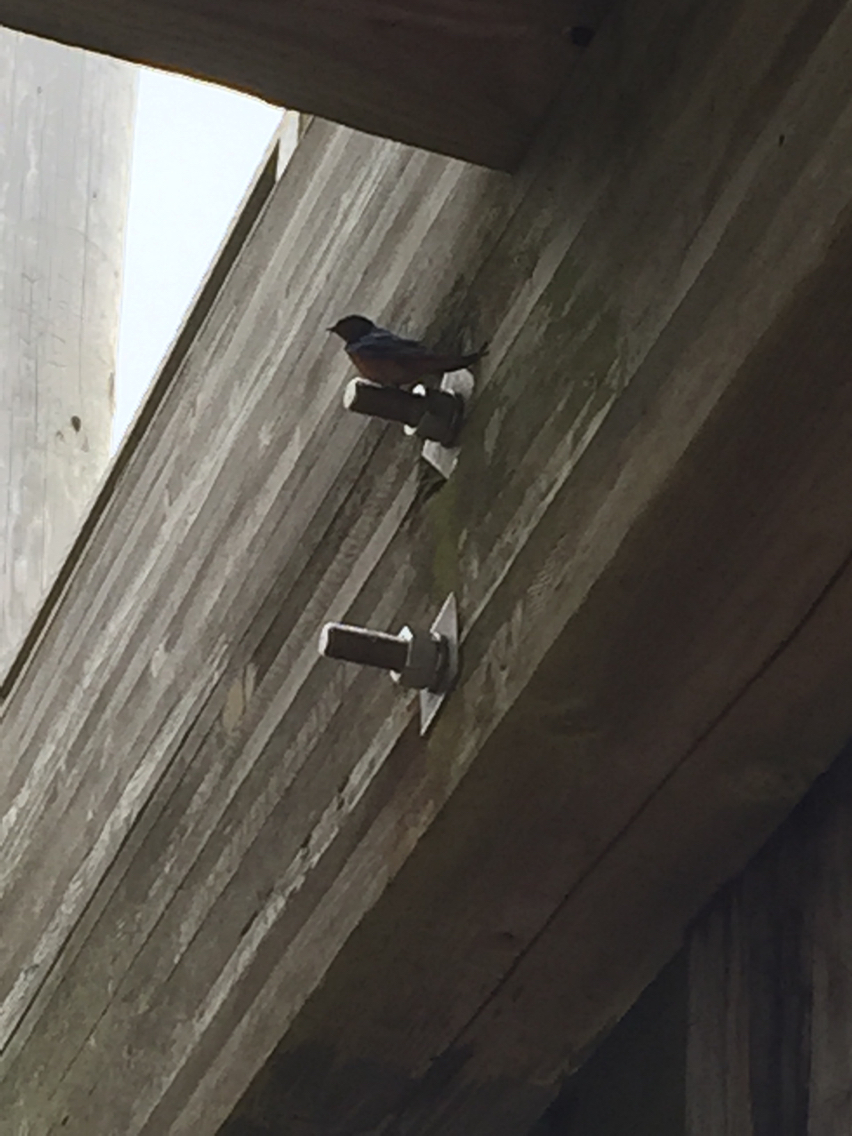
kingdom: Animalia
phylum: Chordata
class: Aves
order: Passeriformes
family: Hirundinidae
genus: Hirundo
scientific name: Hirundo rustica
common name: Barn swallow
